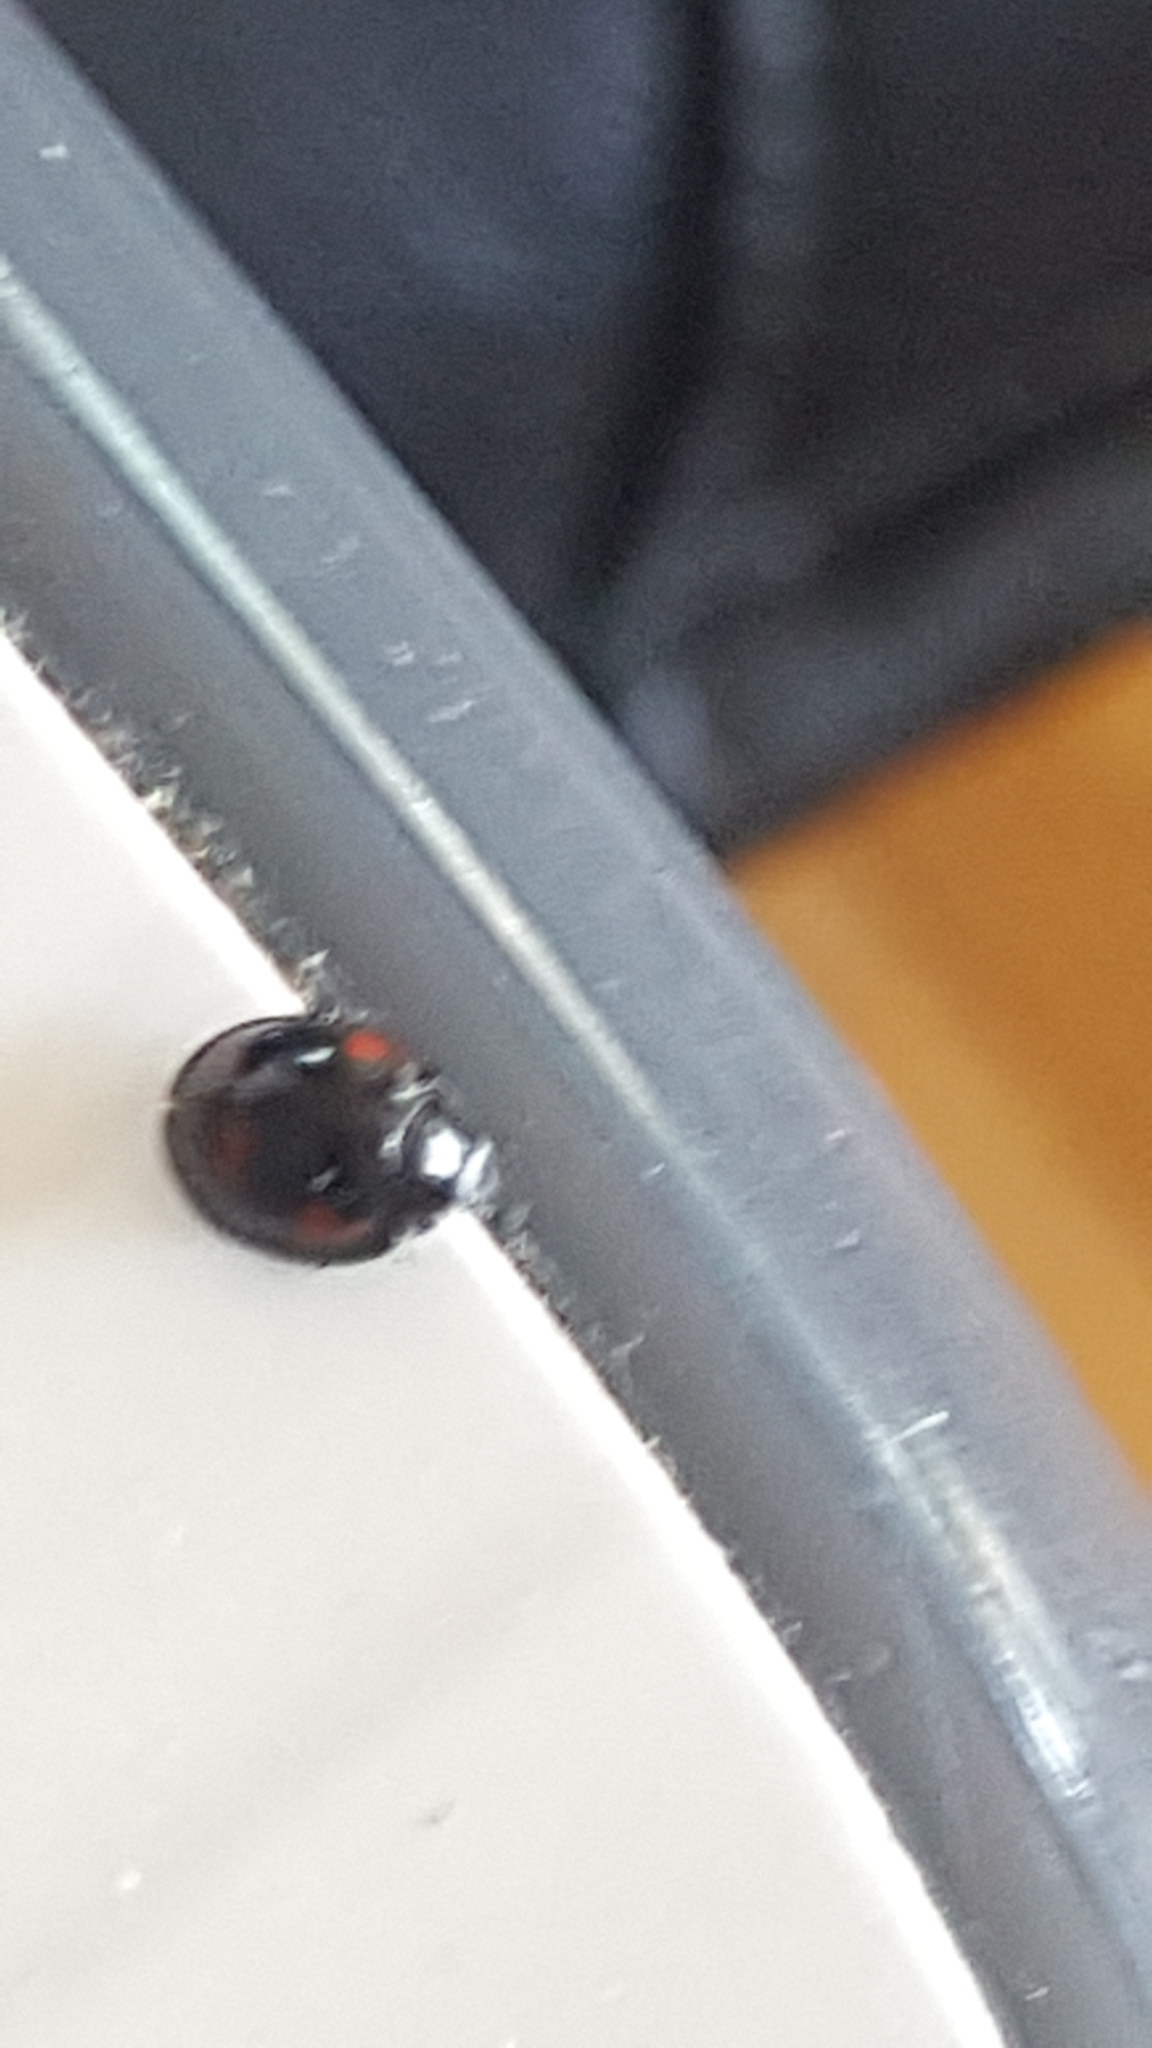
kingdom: Animalia
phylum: Arthropoda
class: Insecta
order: Coleoptera
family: Coccinellidae
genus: Harmonia
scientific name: Harmonia axyridis
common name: Harlequin ladybird
